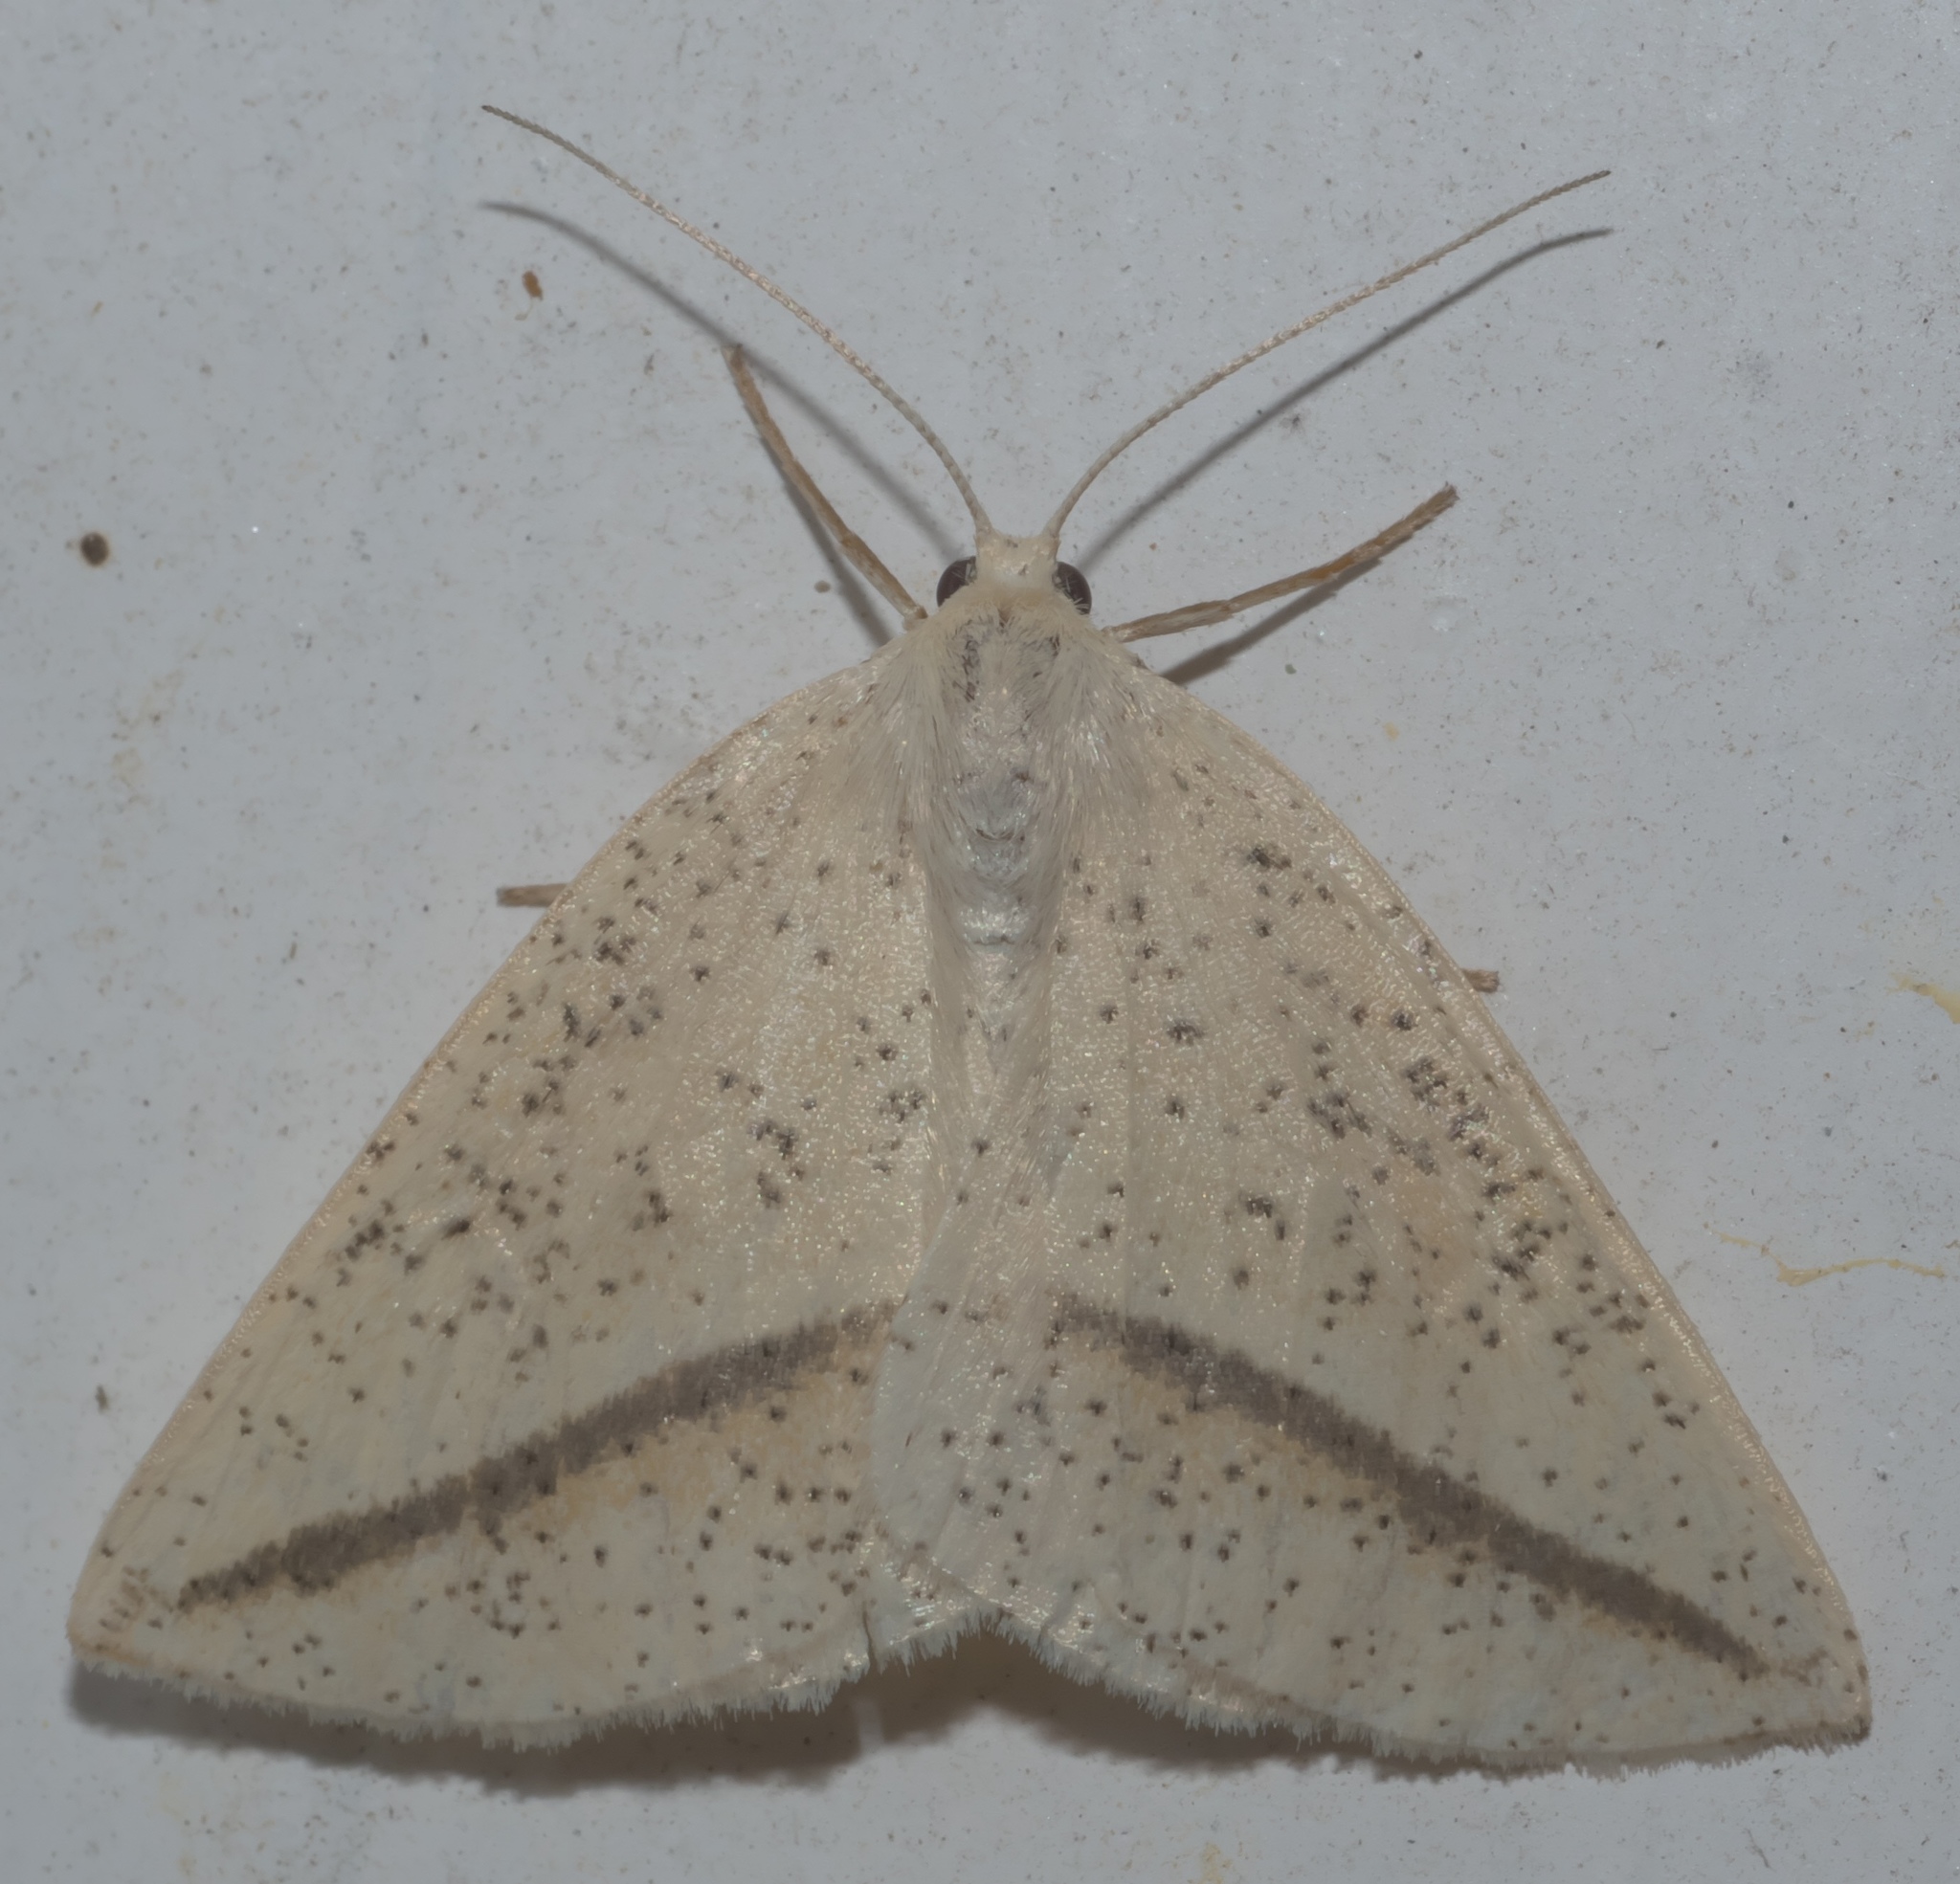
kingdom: Animalia
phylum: Arthropoda
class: Insecta
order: Lepidoptera
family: Geometridae
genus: Lychnosea
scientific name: Lychnosea intermicata
